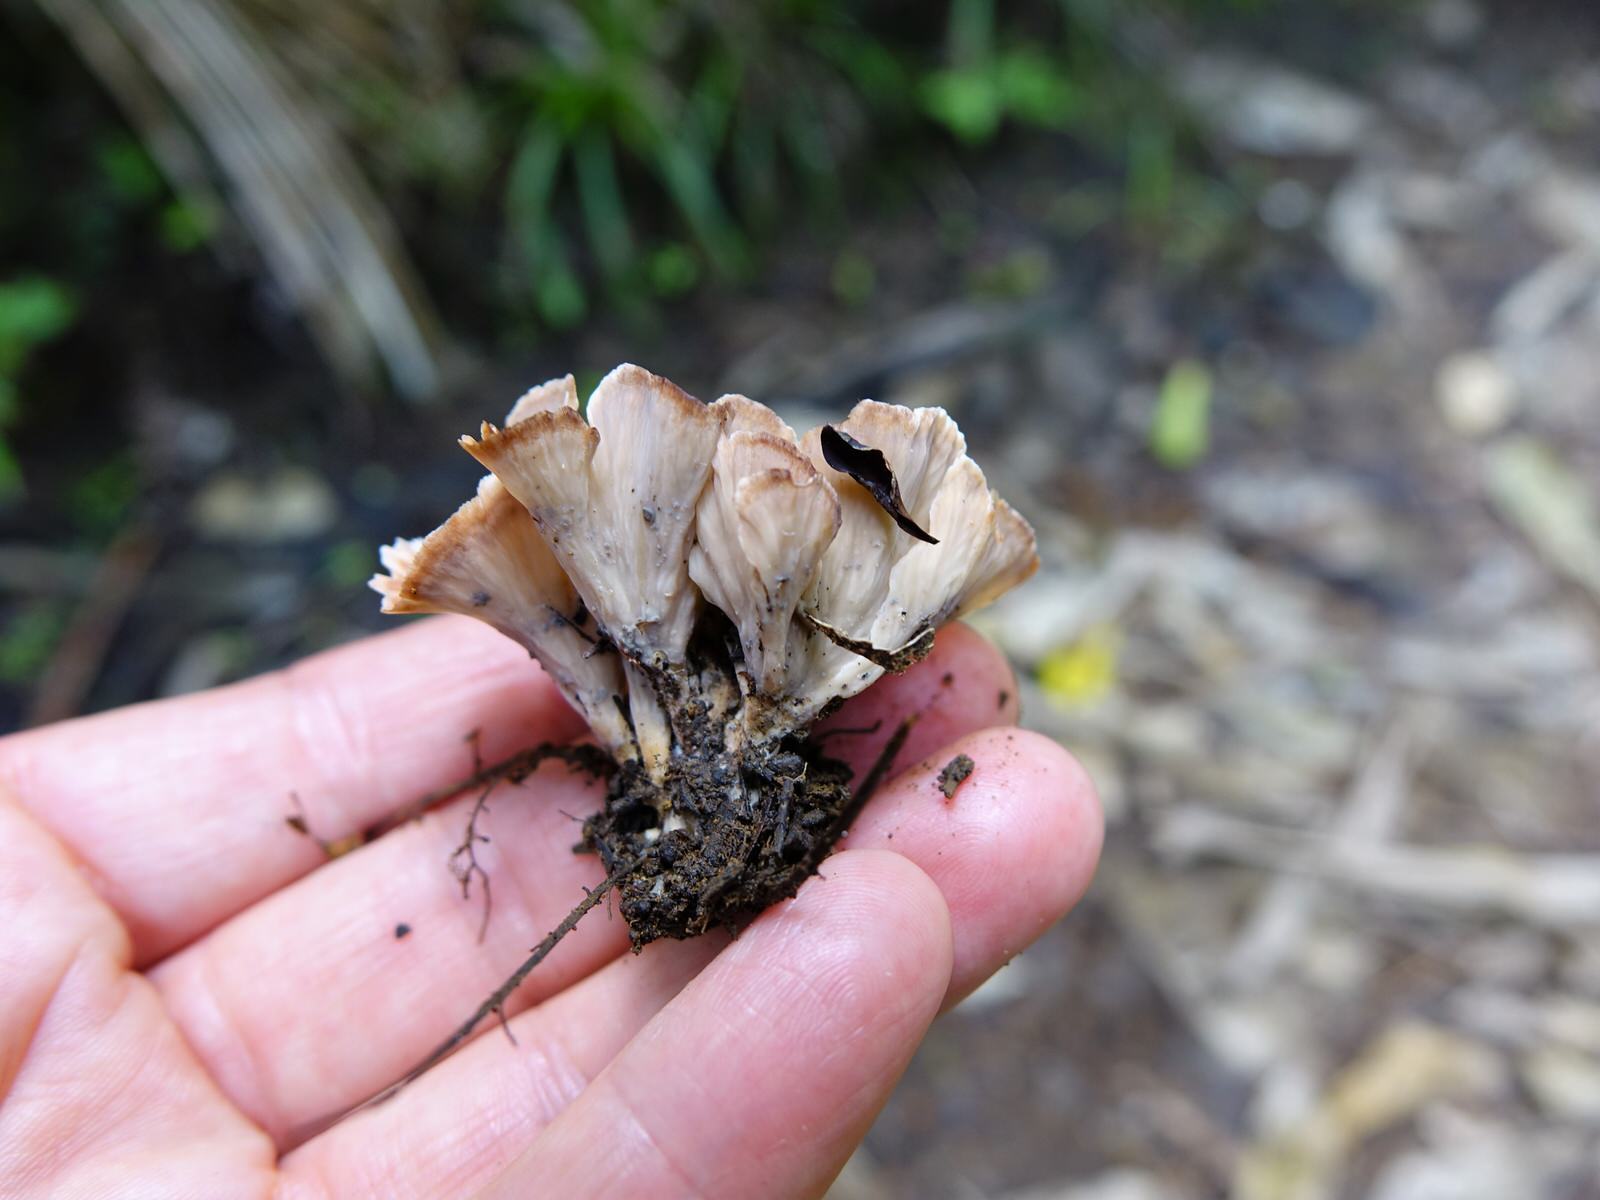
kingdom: Fungi
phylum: Basidiomycota
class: Agaricomycetes
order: Polyporales
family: Podoscyphaceae
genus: Podoscypha
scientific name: Podoscypha petalodes
